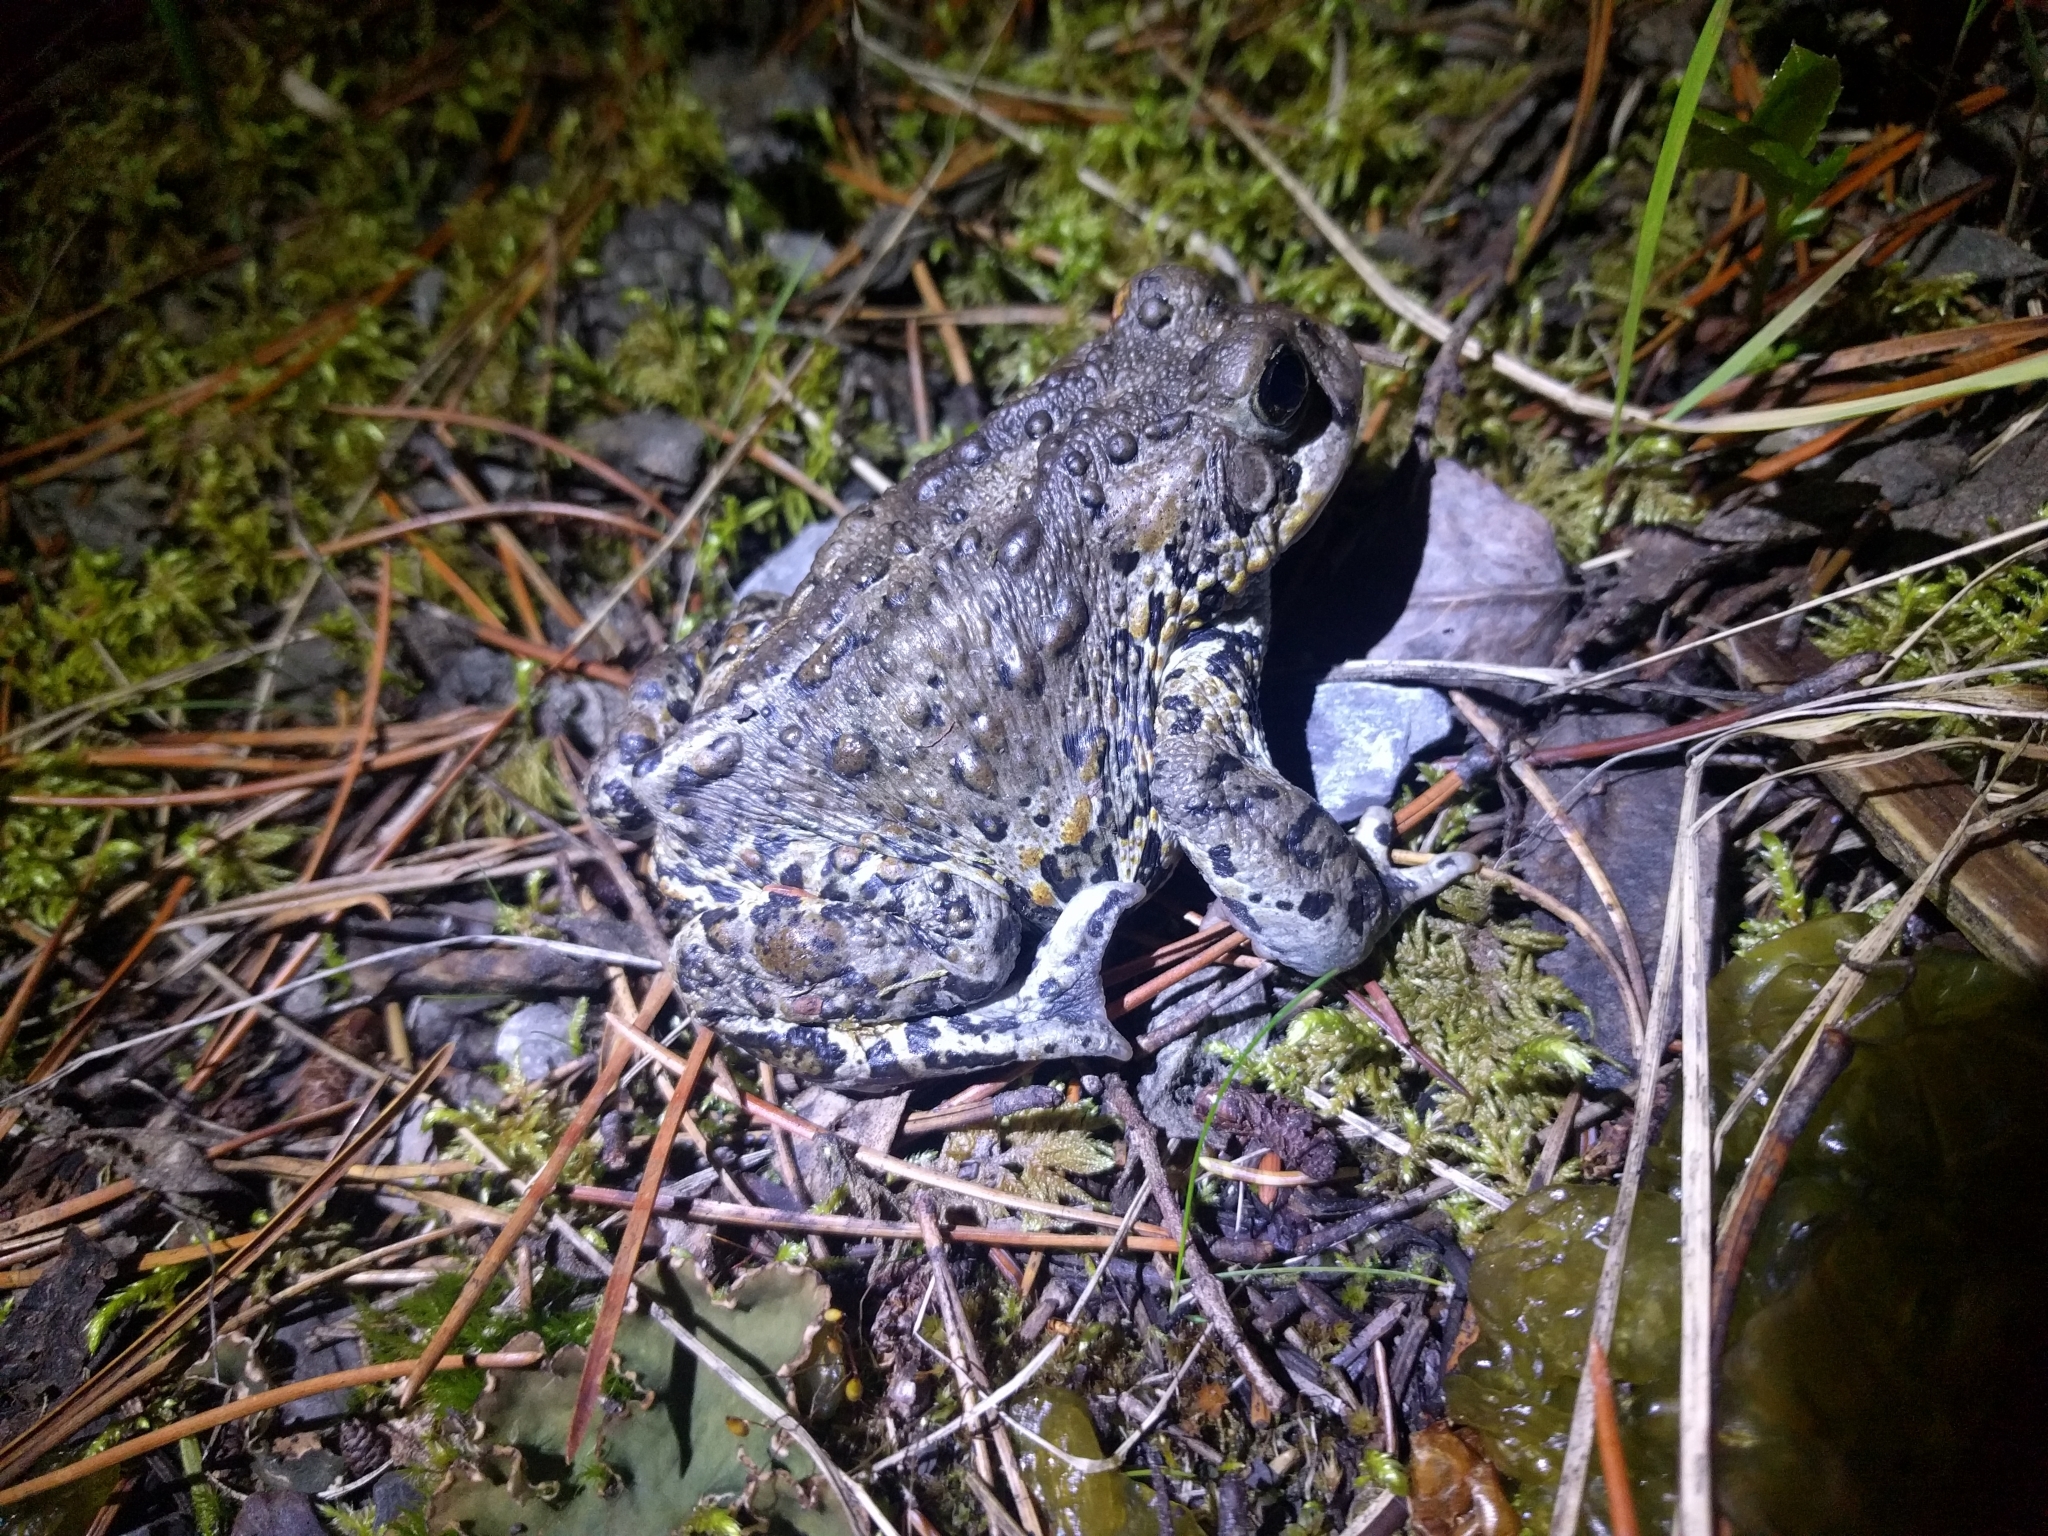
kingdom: Animalia
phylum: Chordata
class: Amphibia
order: Anura
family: Bufonidae
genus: Anaxyrus
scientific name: Anaxyrus boreas
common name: Western toad
